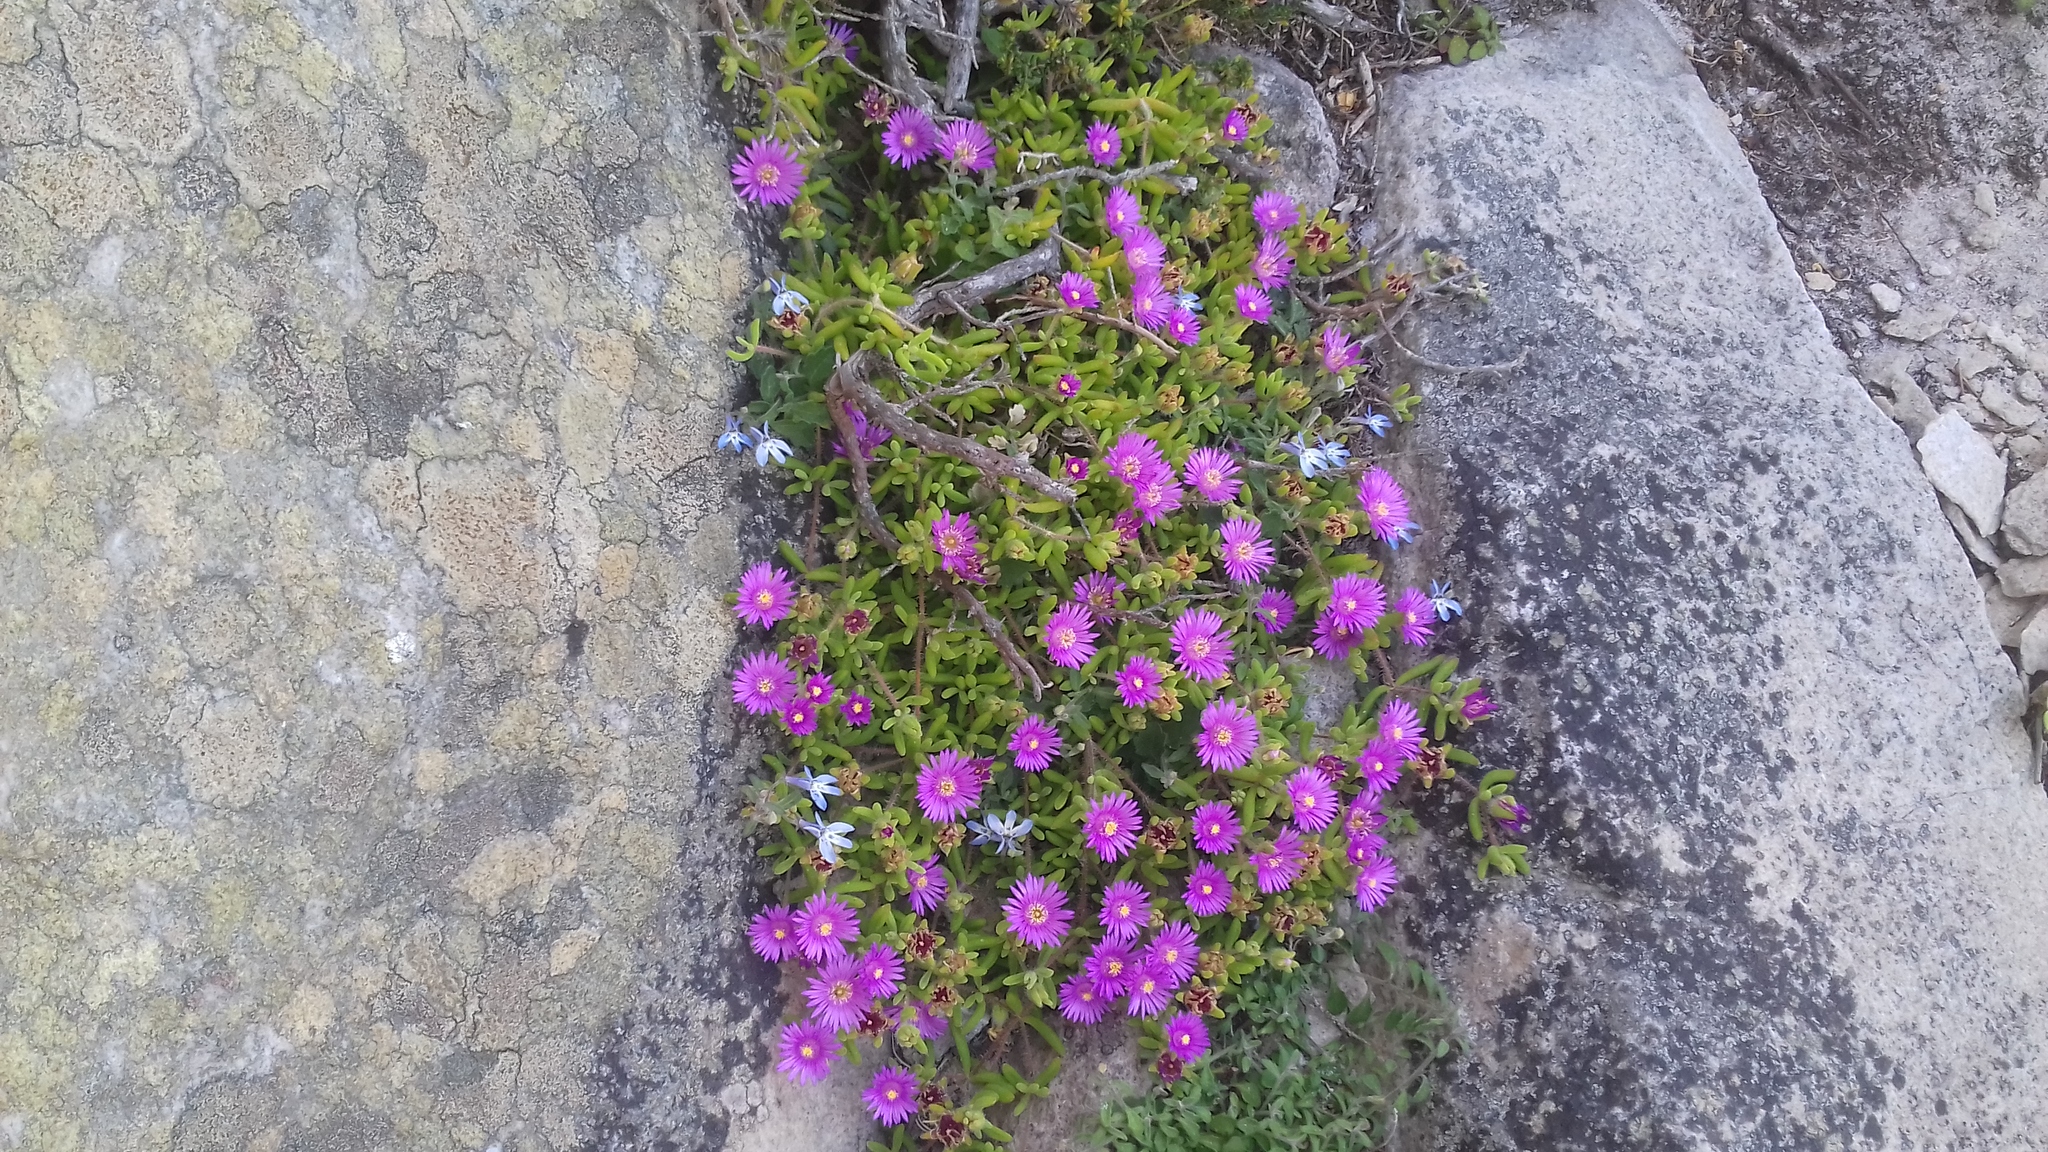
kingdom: Plantae
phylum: Tracheophyta
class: Magnoliopsida
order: Asterales
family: Campanulaceae
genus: Lobelia
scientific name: Lobelia boivinii
